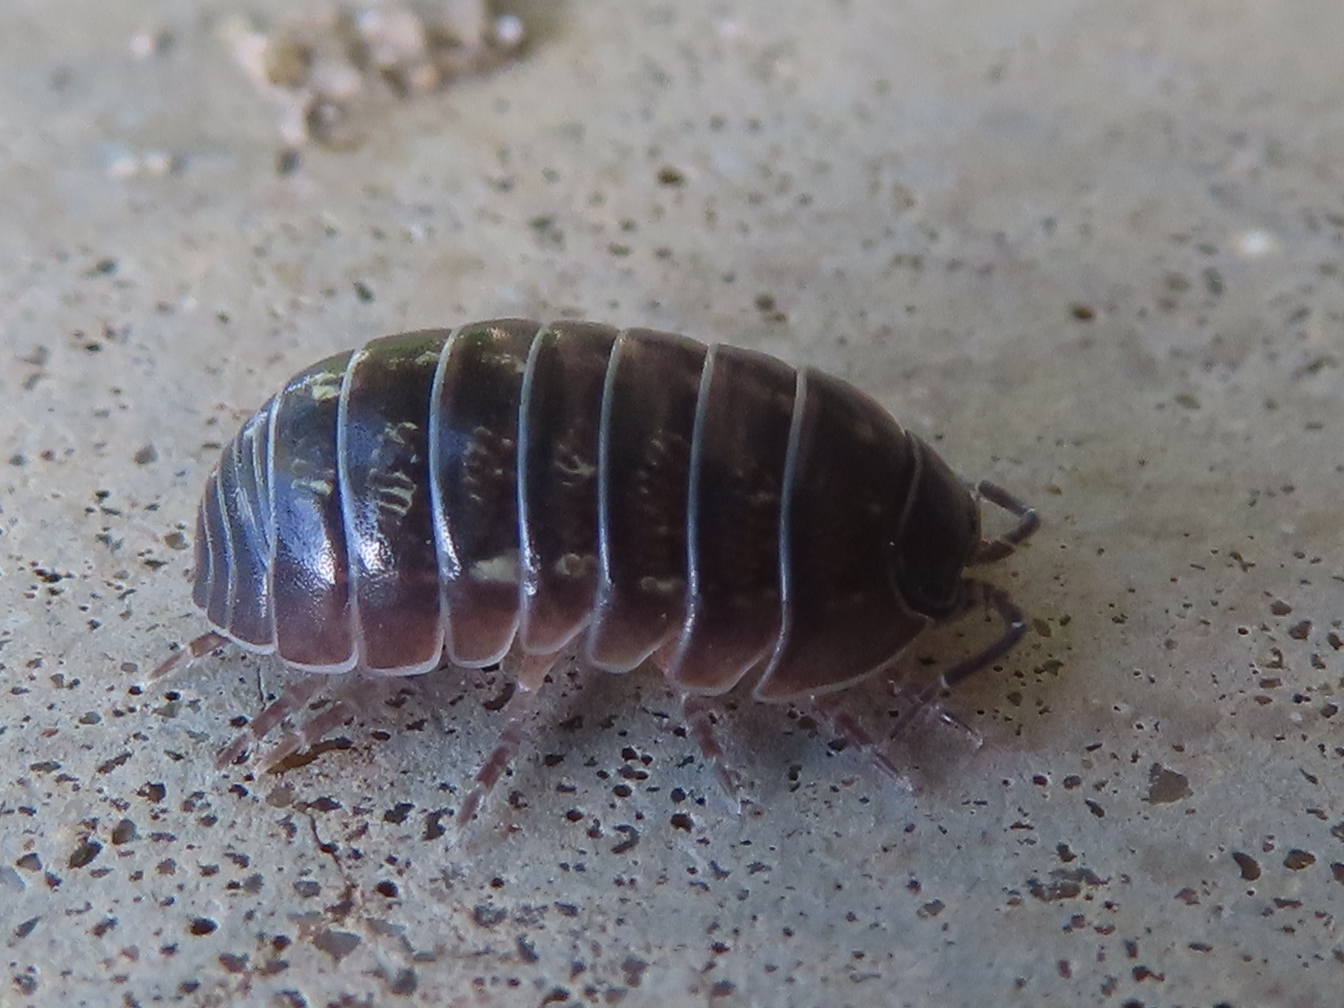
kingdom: Animalia
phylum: Arthropoda
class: Malacostraca
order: Isopoda
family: Armadillidiidae
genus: Armadillidium
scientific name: Armadillidium vulgare
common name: Common pill woodlouse
